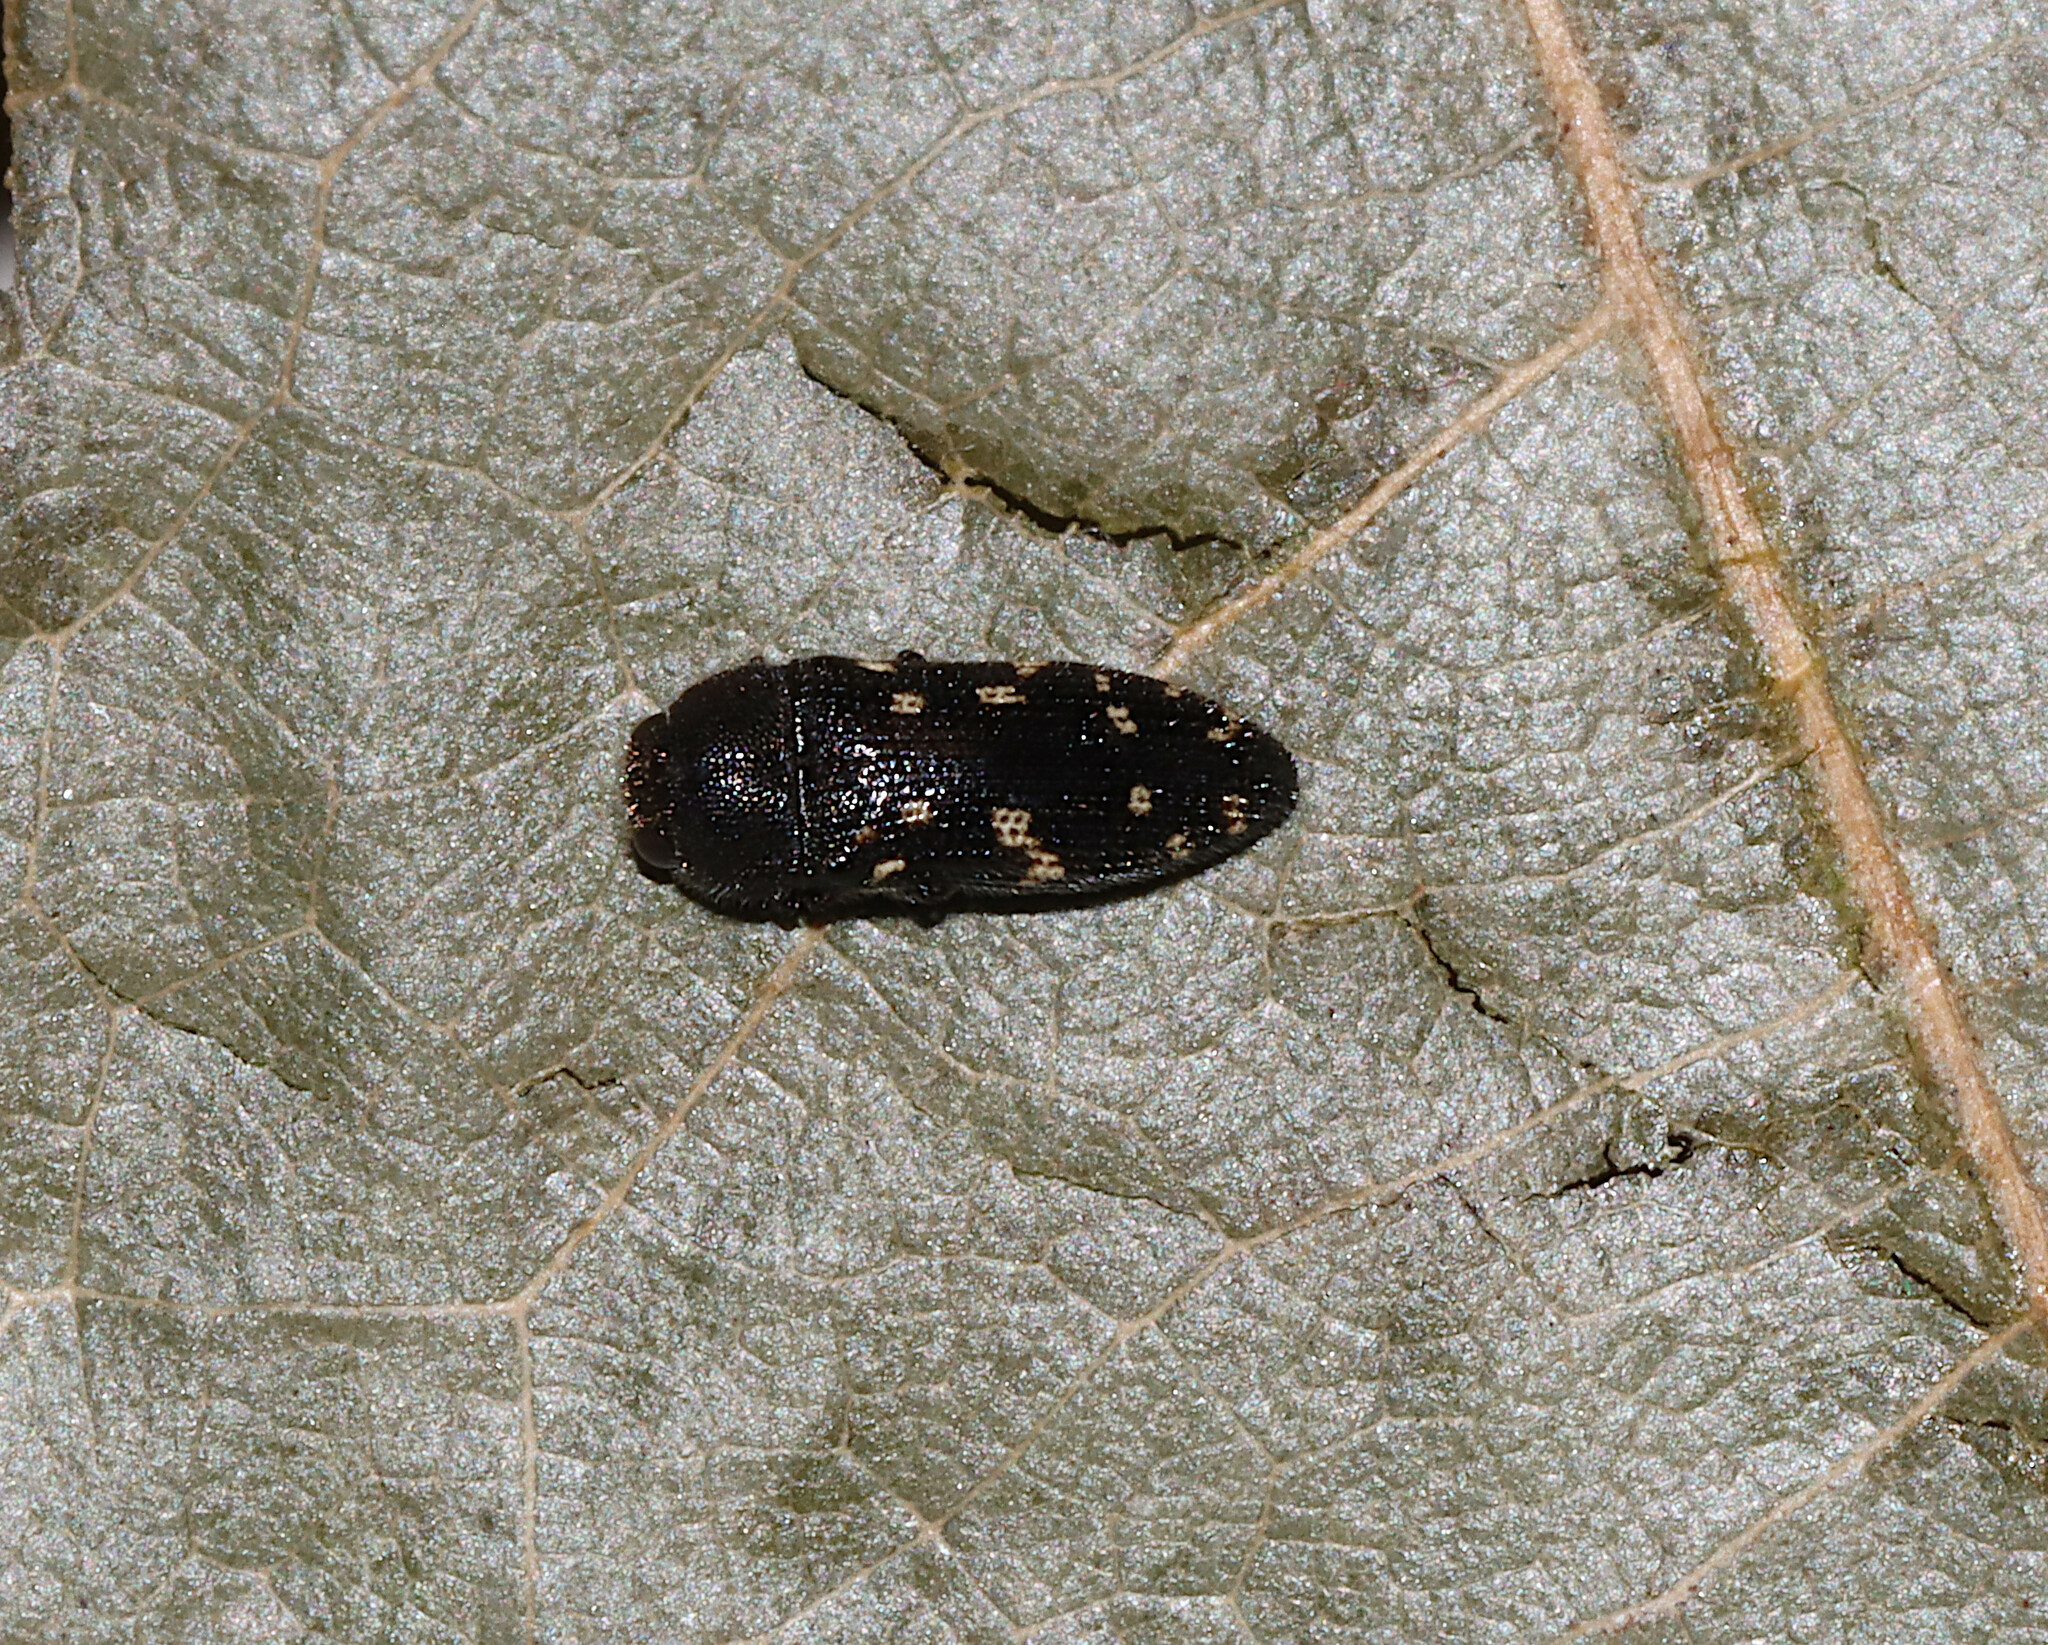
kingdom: Animalia
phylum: Arthropoda
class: Insecta
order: Coleoptera
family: Buprestidae
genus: Acmaeodera
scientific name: Acmaeodera tubulus
